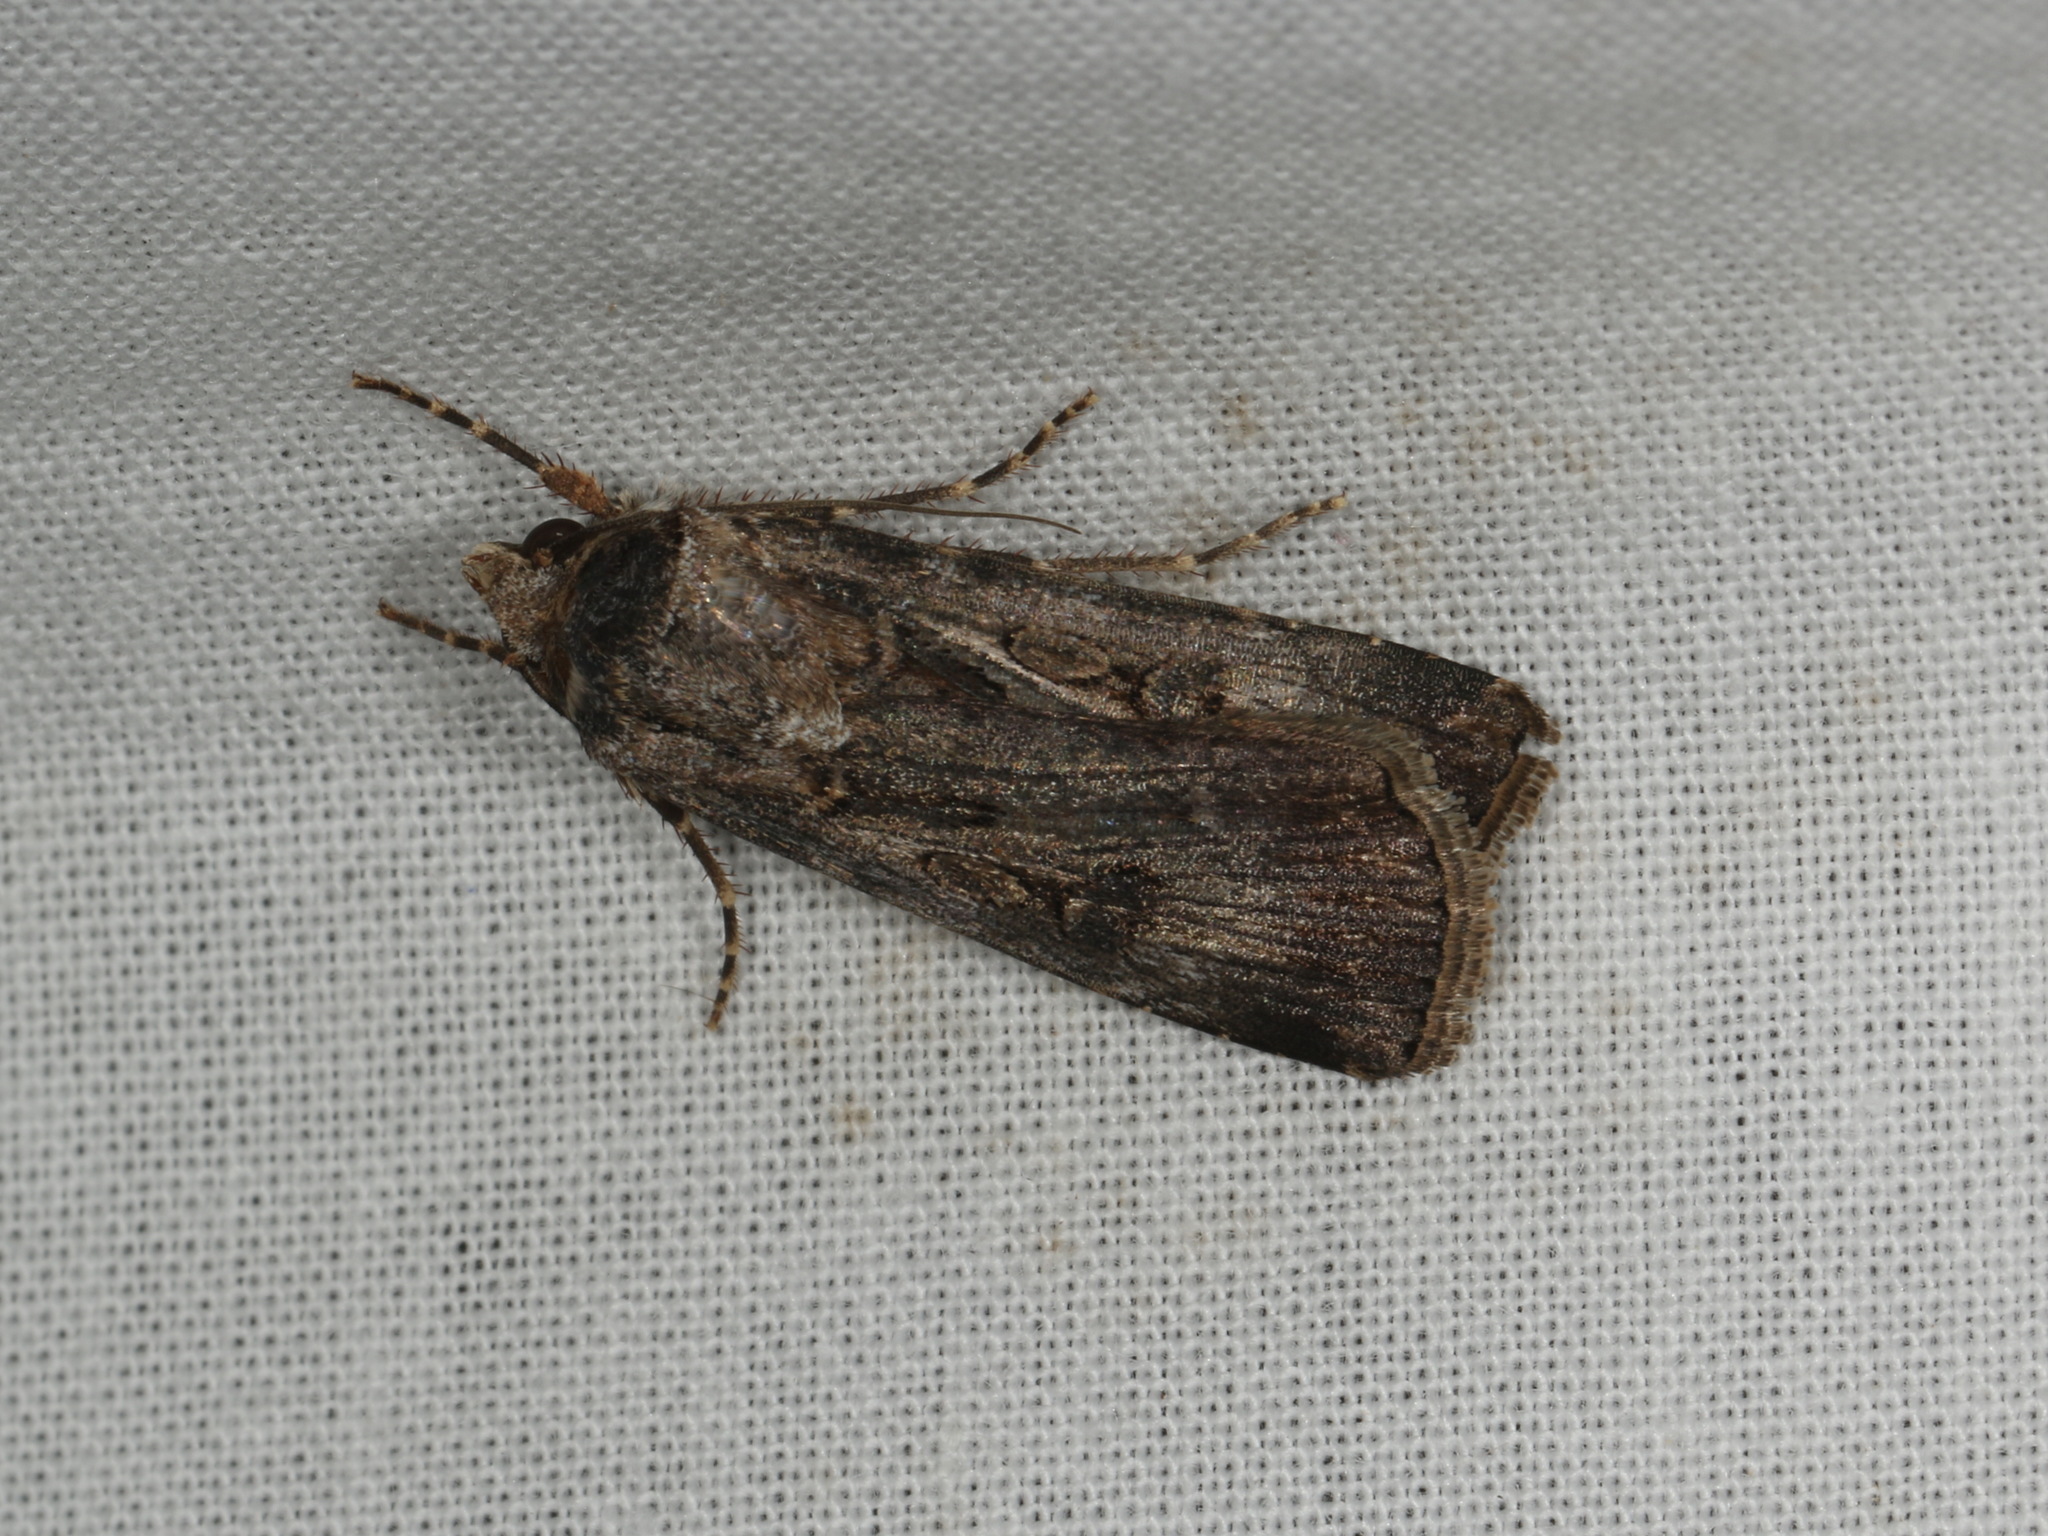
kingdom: Animalia
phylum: Arthropoda
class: Insecta
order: Lepidoptera
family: Noctuidae
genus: Agrotis
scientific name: Agrotis munda
